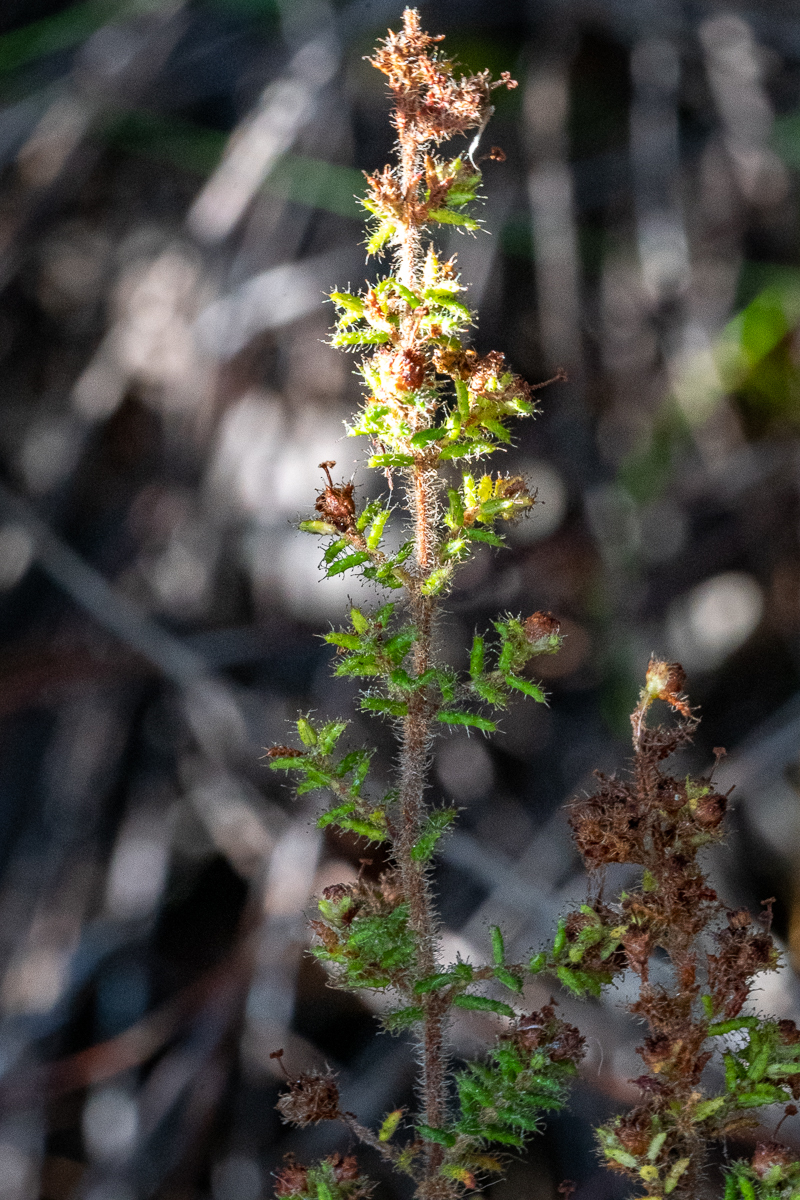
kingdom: Plantae
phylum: Tracheophyta
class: Magnoliopsida
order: Ericales
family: Ericaceae
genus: Erica
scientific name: Erica exleeana
